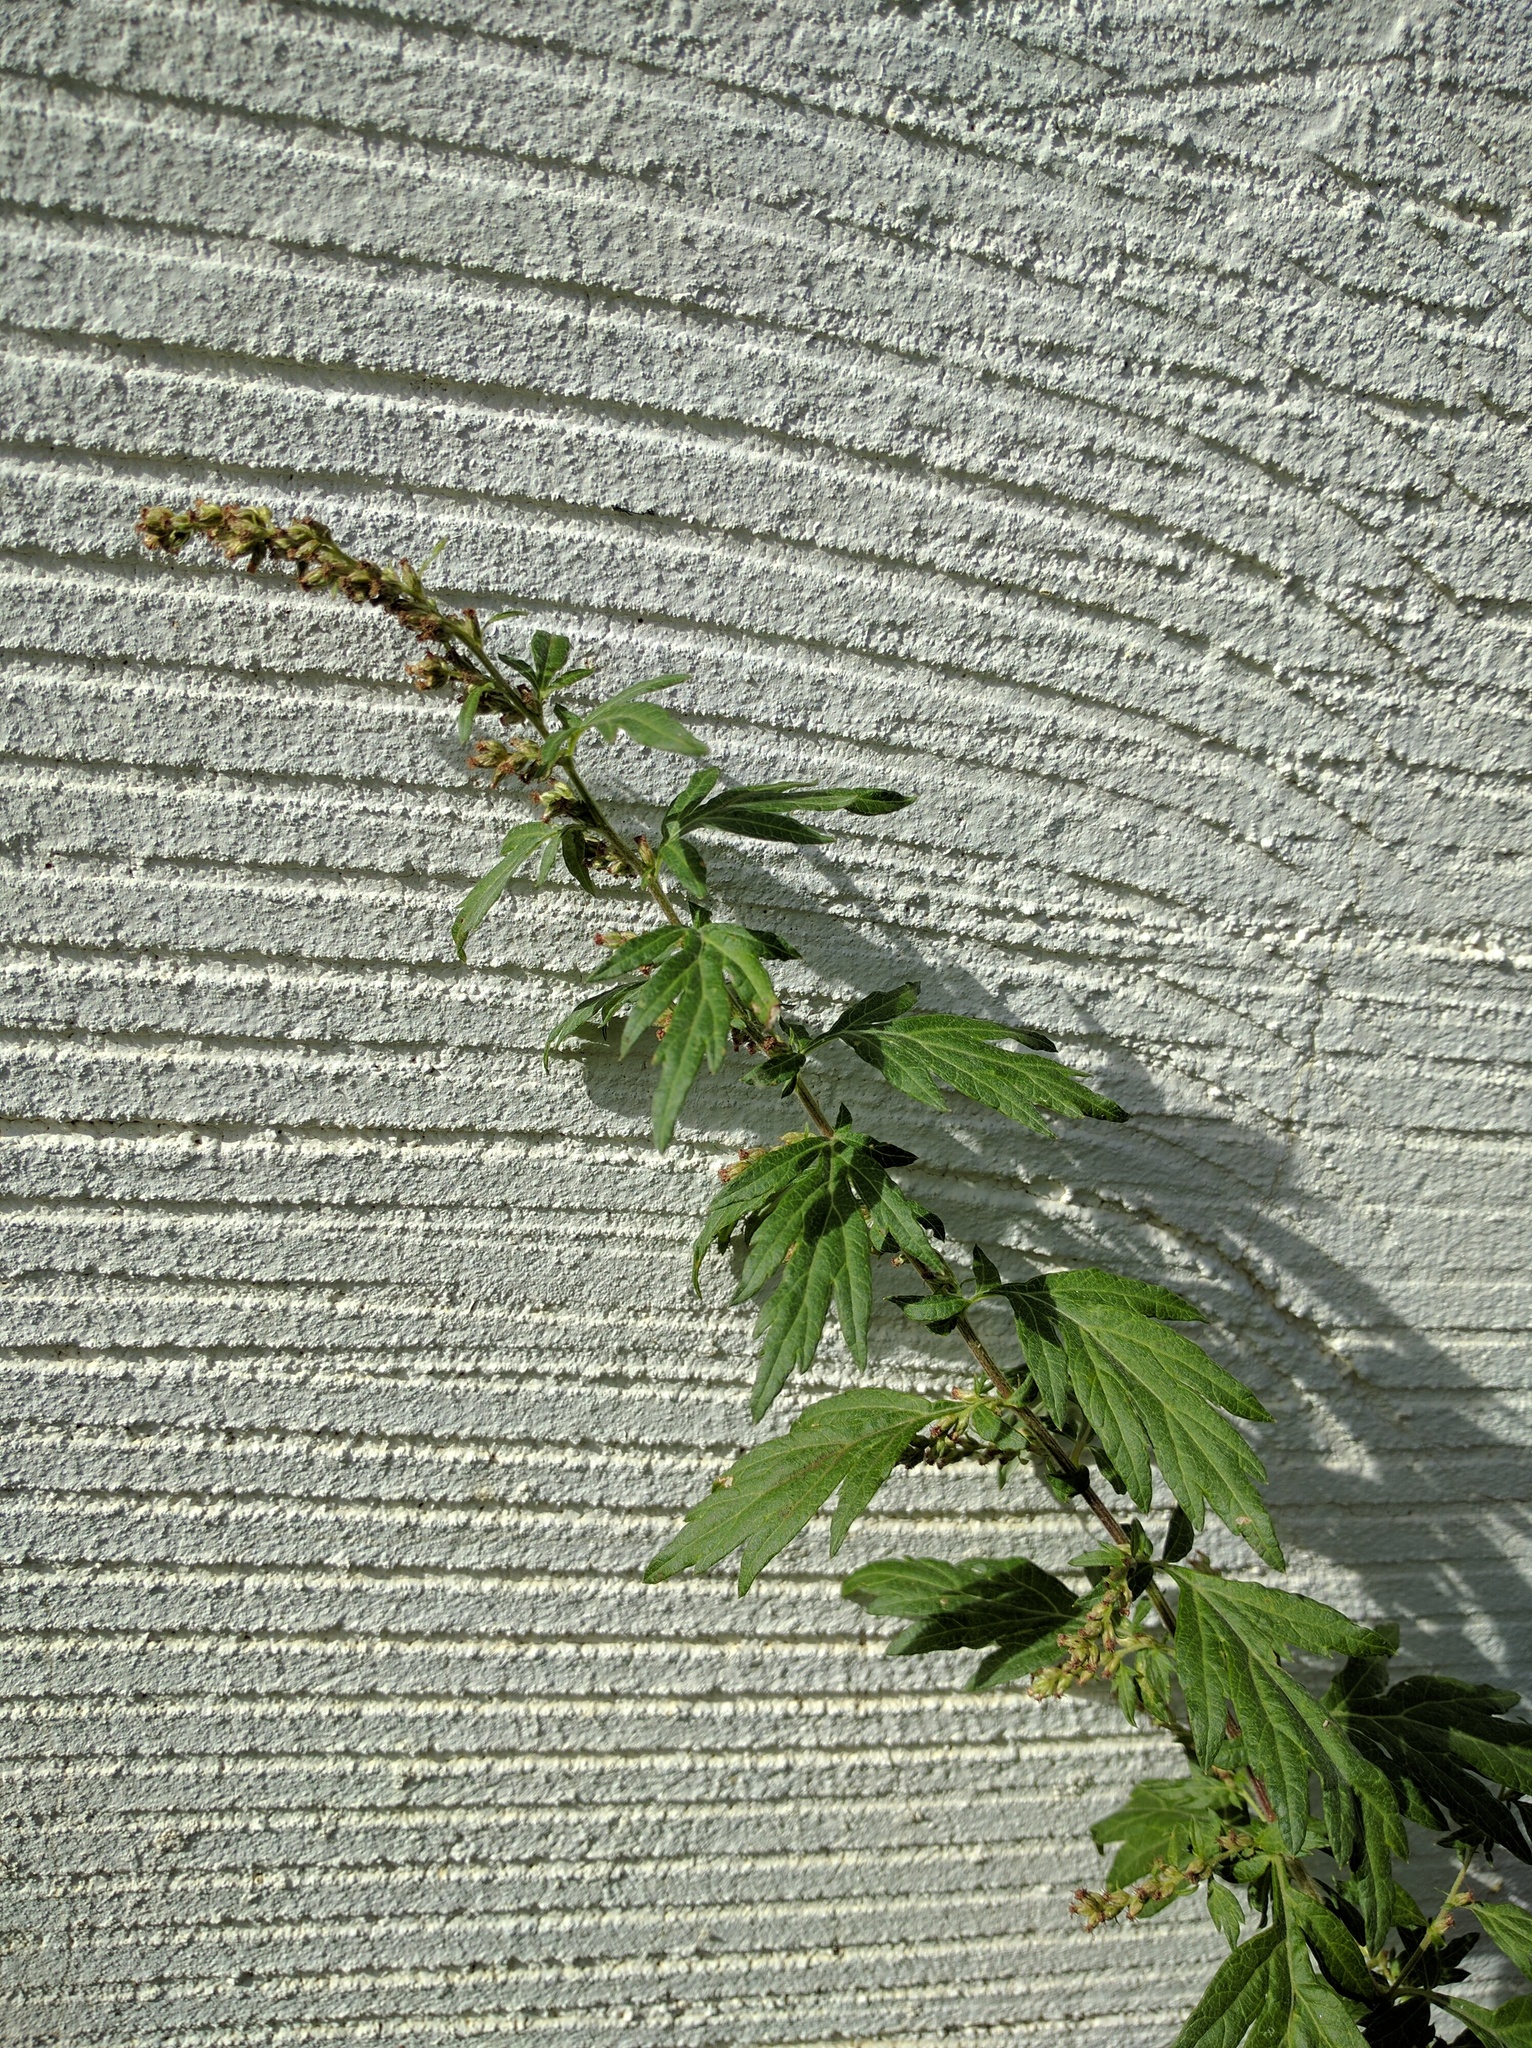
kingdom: Plantae
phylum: Tracheophyta
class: Magnoliopsida
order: Asterales
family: Asteraceae
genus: Artemisia
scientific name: Artemisia vulgaris
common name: Mugwort
